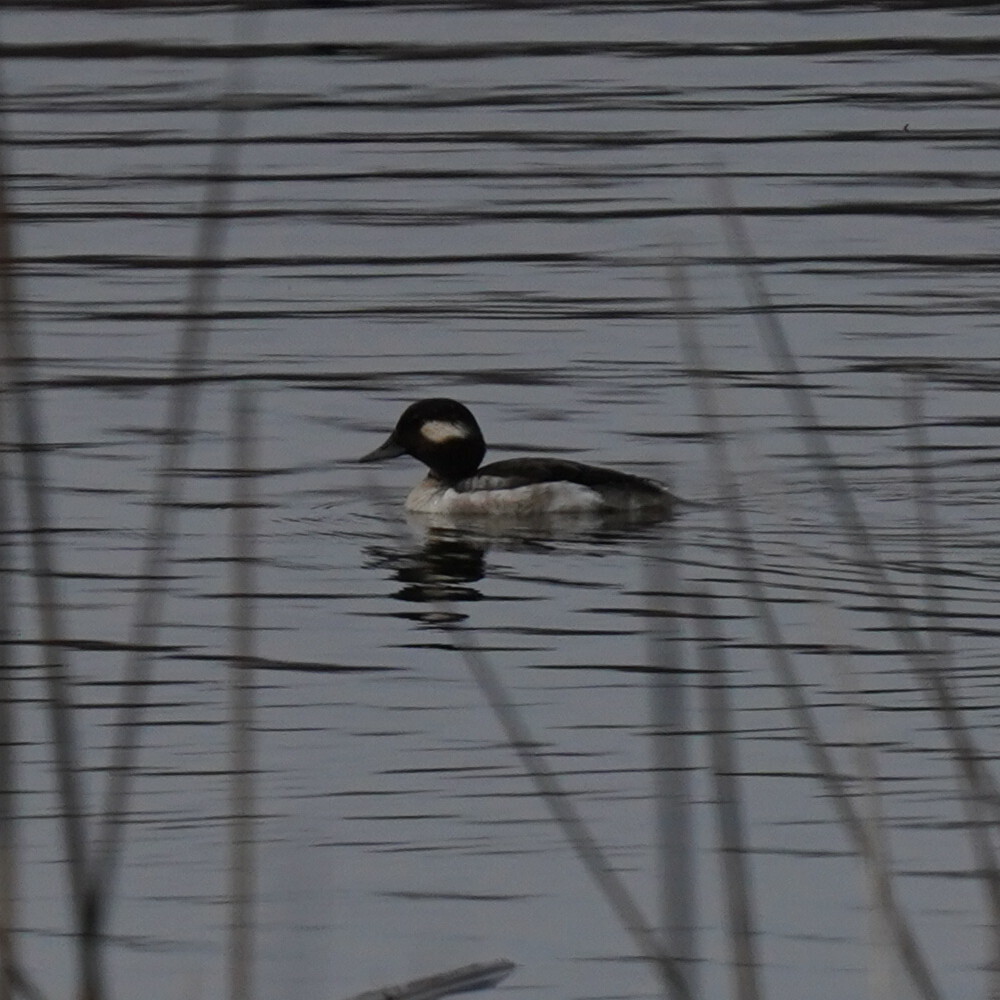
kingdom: Animalia
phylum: Chordata
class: Aves
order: Anseriformes
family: Anatidae
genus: Bucephala
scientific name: Bucephala albeola
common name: Bufflehead
